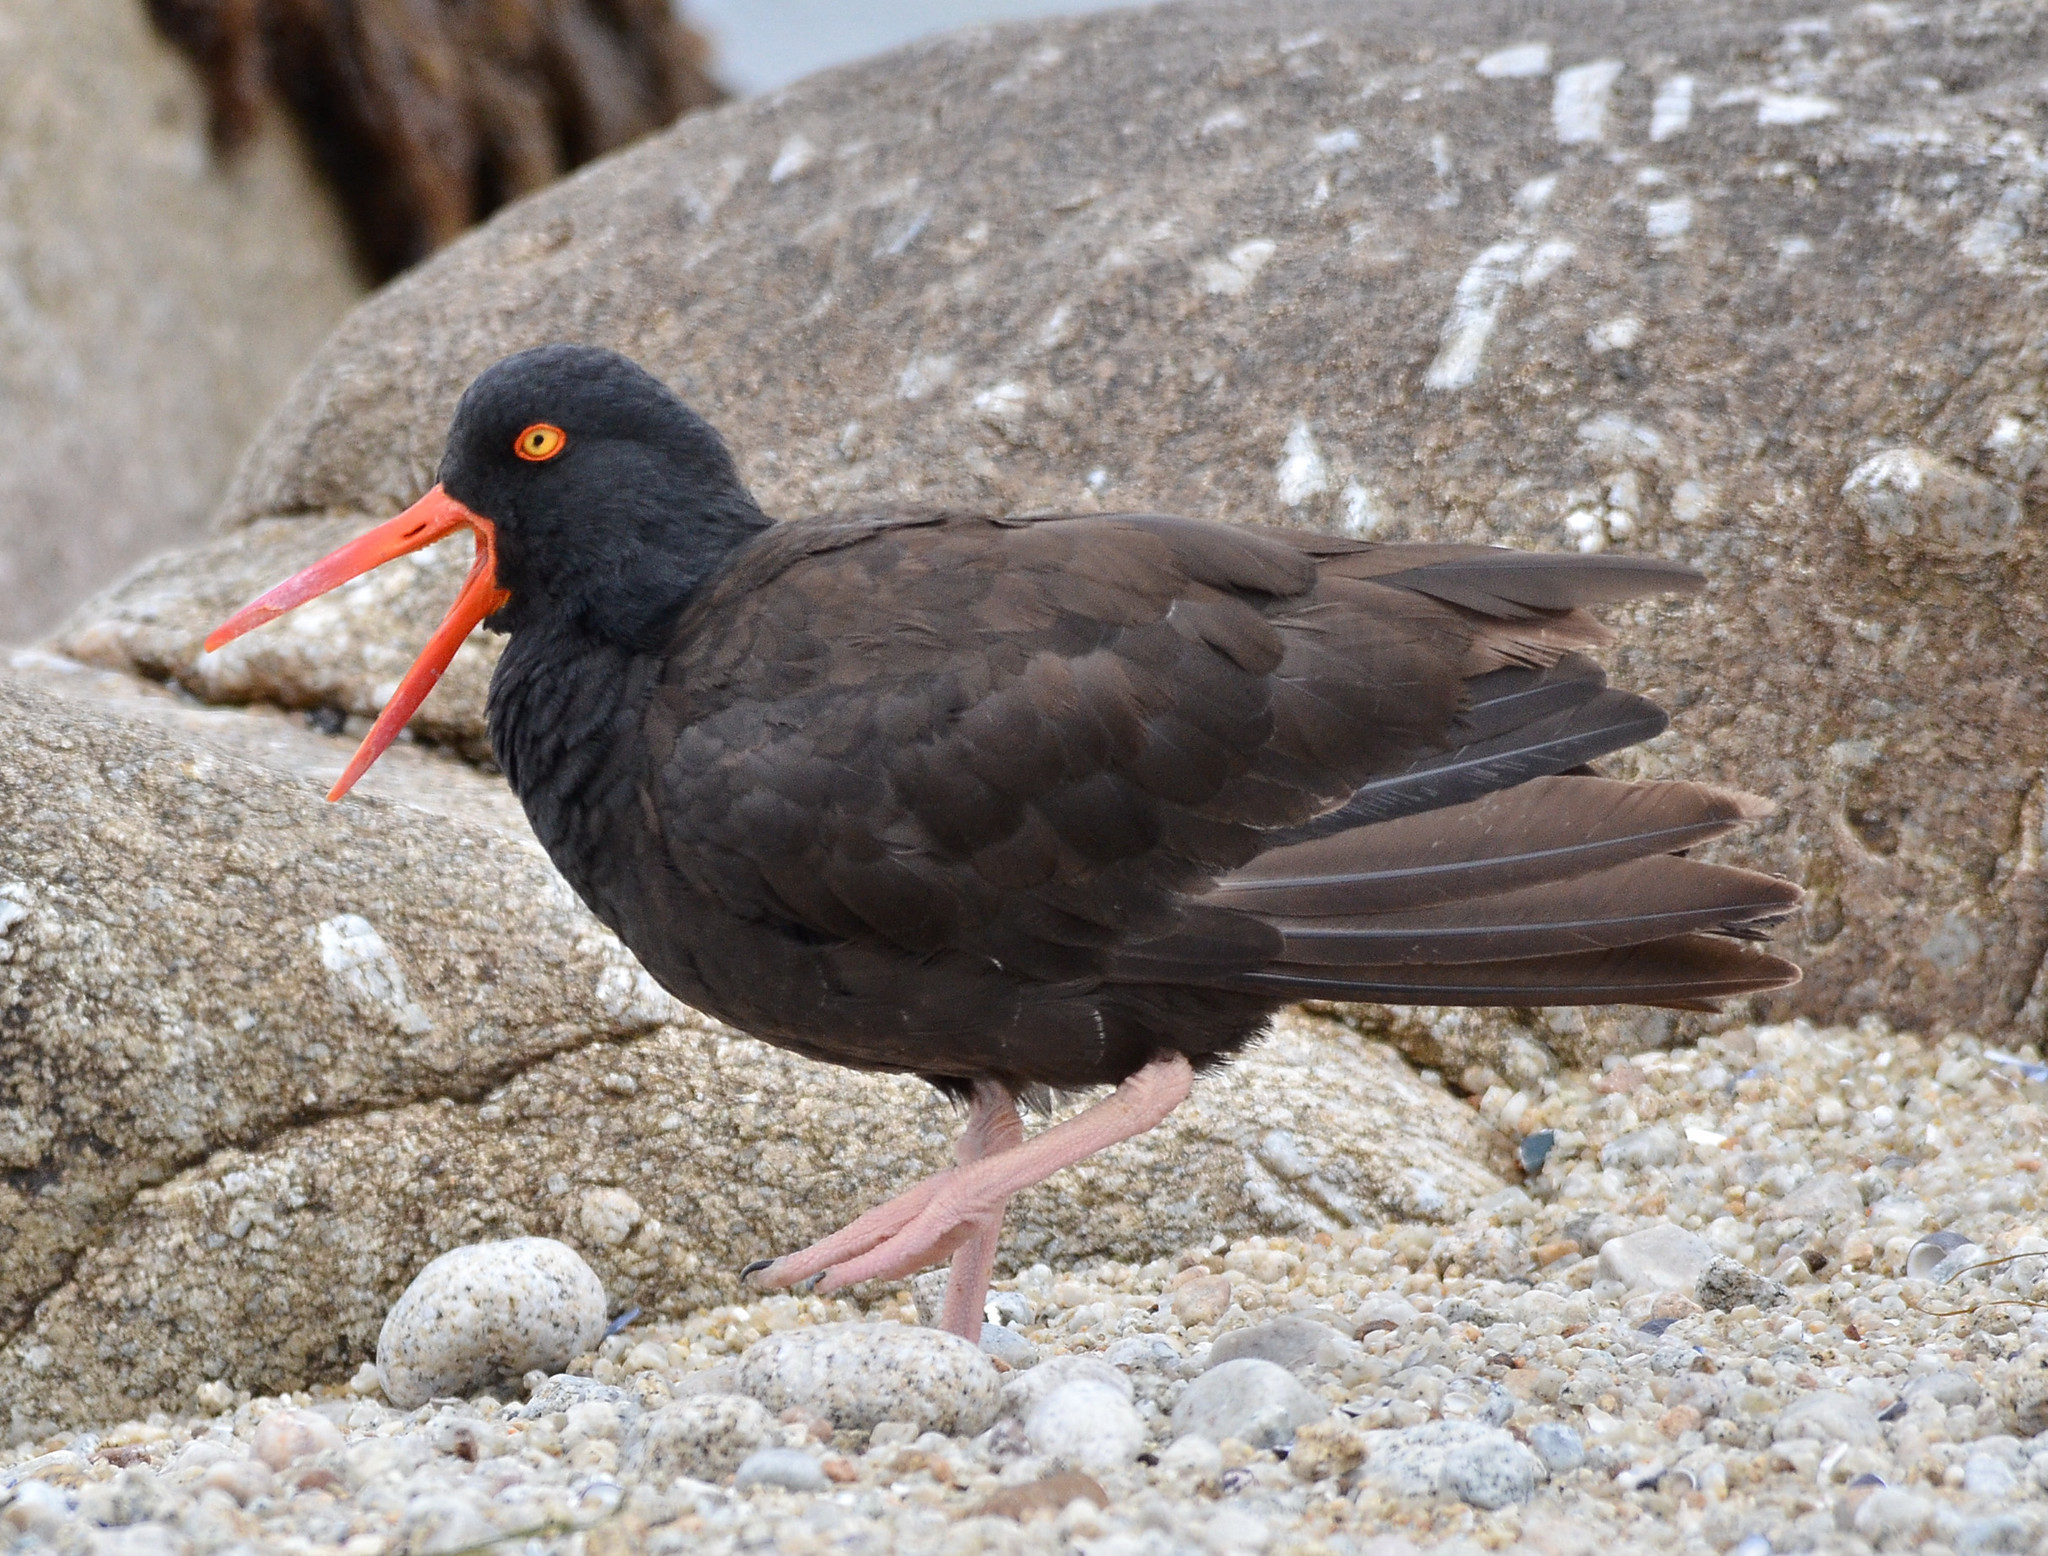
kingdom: Animalia
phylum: Chordata
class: Aves
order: Charadriiformes
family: Haematopodidae
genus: Haematopus
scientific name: Haematopus bachmani
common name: Black oystercatcher
